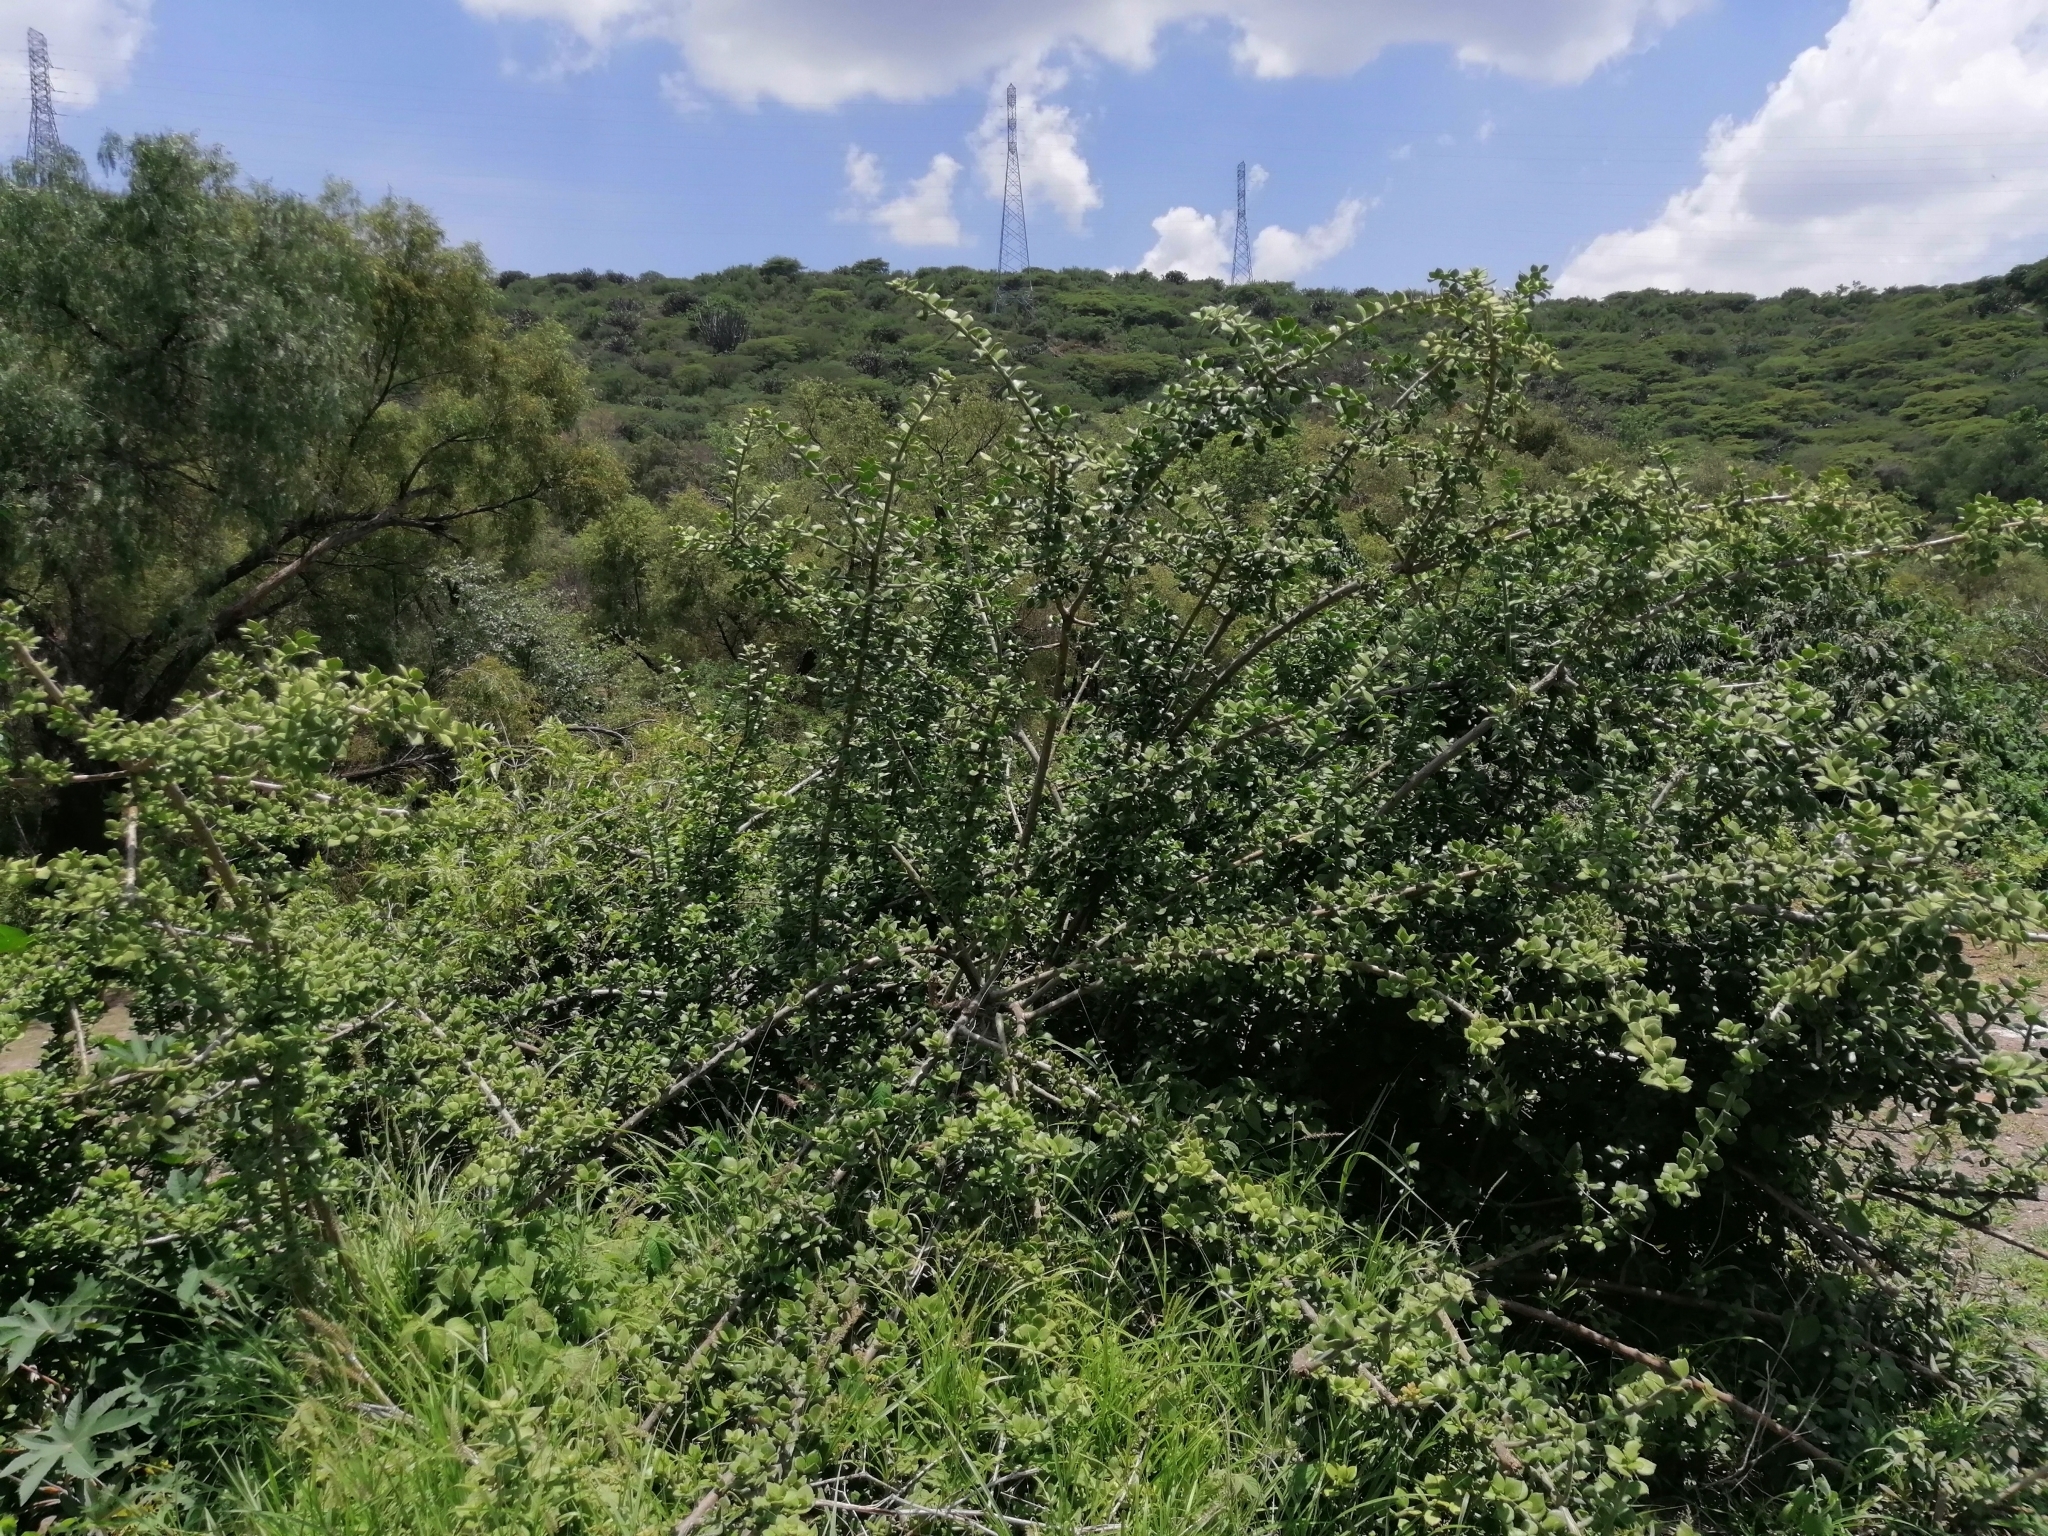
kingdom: Plantae
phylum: Tracheophyta
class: Magnoliopsida
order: Caryophyllales
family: Cactaceae
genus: Pereskiopsis
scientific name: Pereskiopsis diguetii
